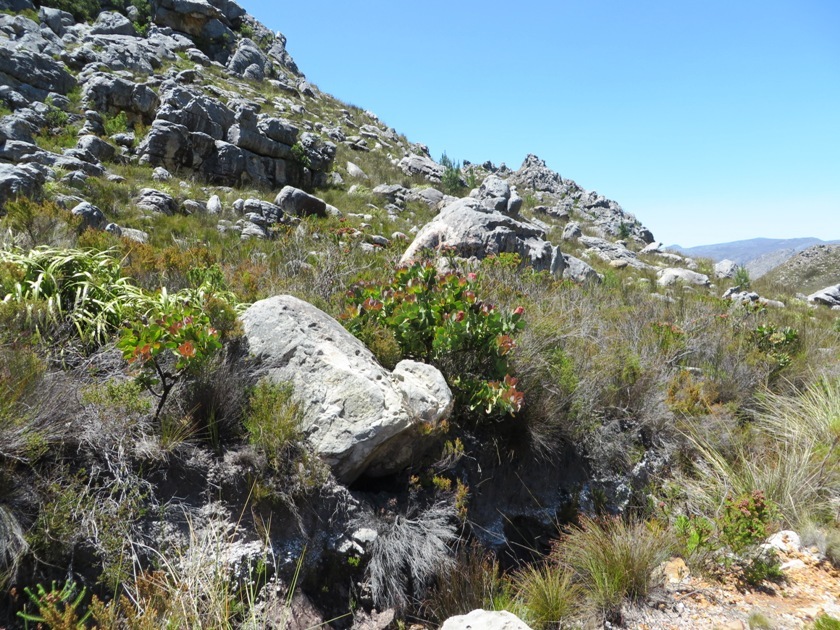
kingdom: Plantae
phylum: Tracheophyta
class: Magnoliopsida
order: Proteales
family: Proteaceae
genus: Protea
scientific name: Protea grandiceps
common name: Red sugarbush
